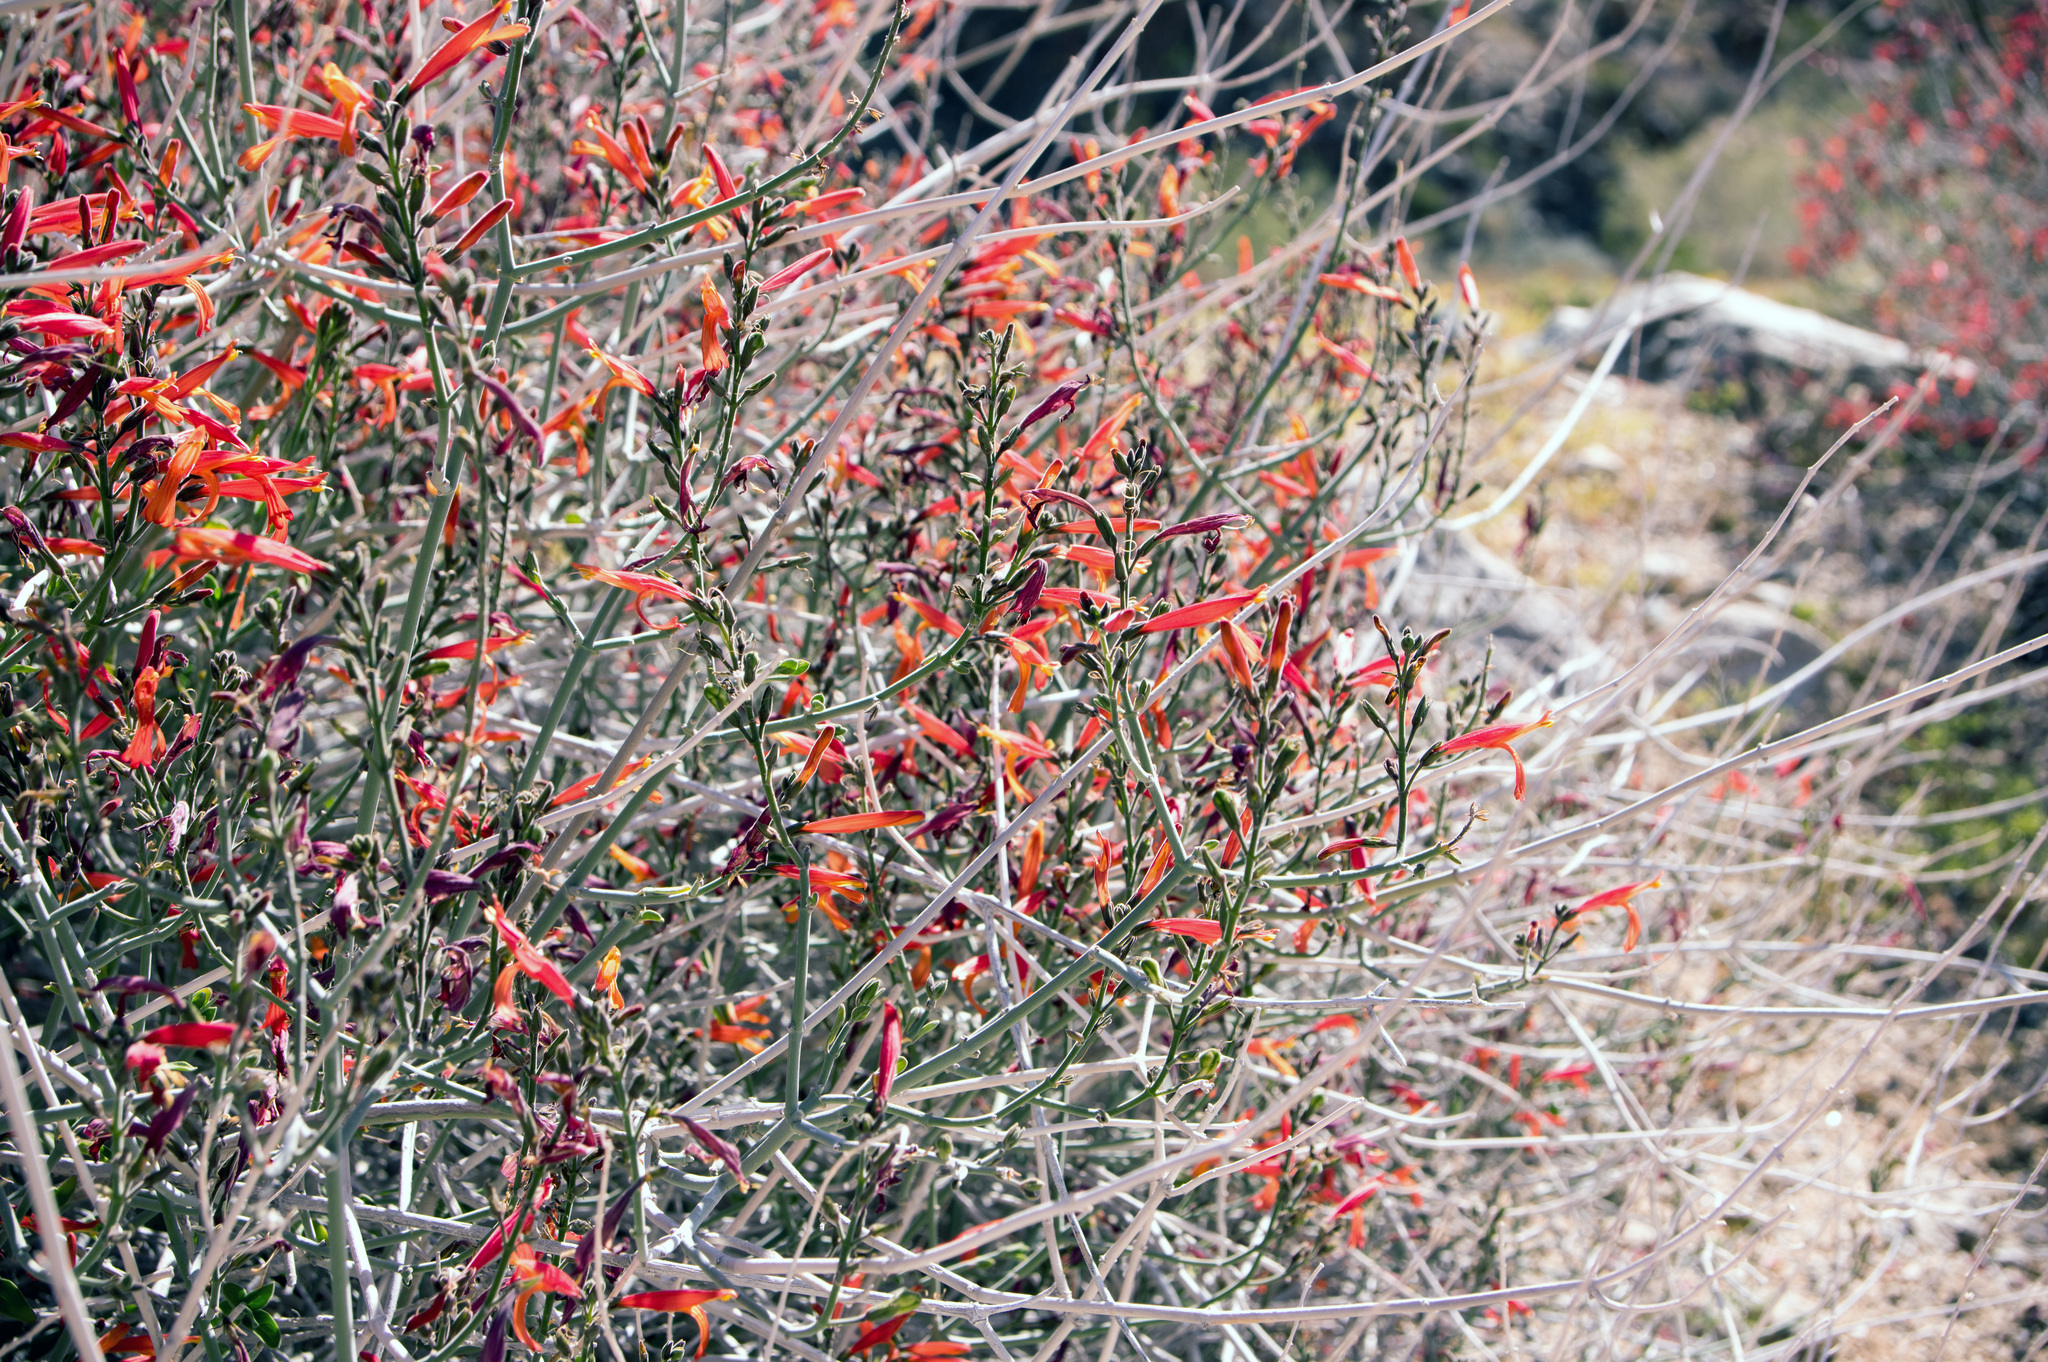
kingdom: Plantae
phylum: Tracheophyta
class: Magnoliopsida
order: Lamiales
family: Acanthaceae
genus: Justicia
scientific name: Justicia californica
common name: Chuparosa-honeysuckle
